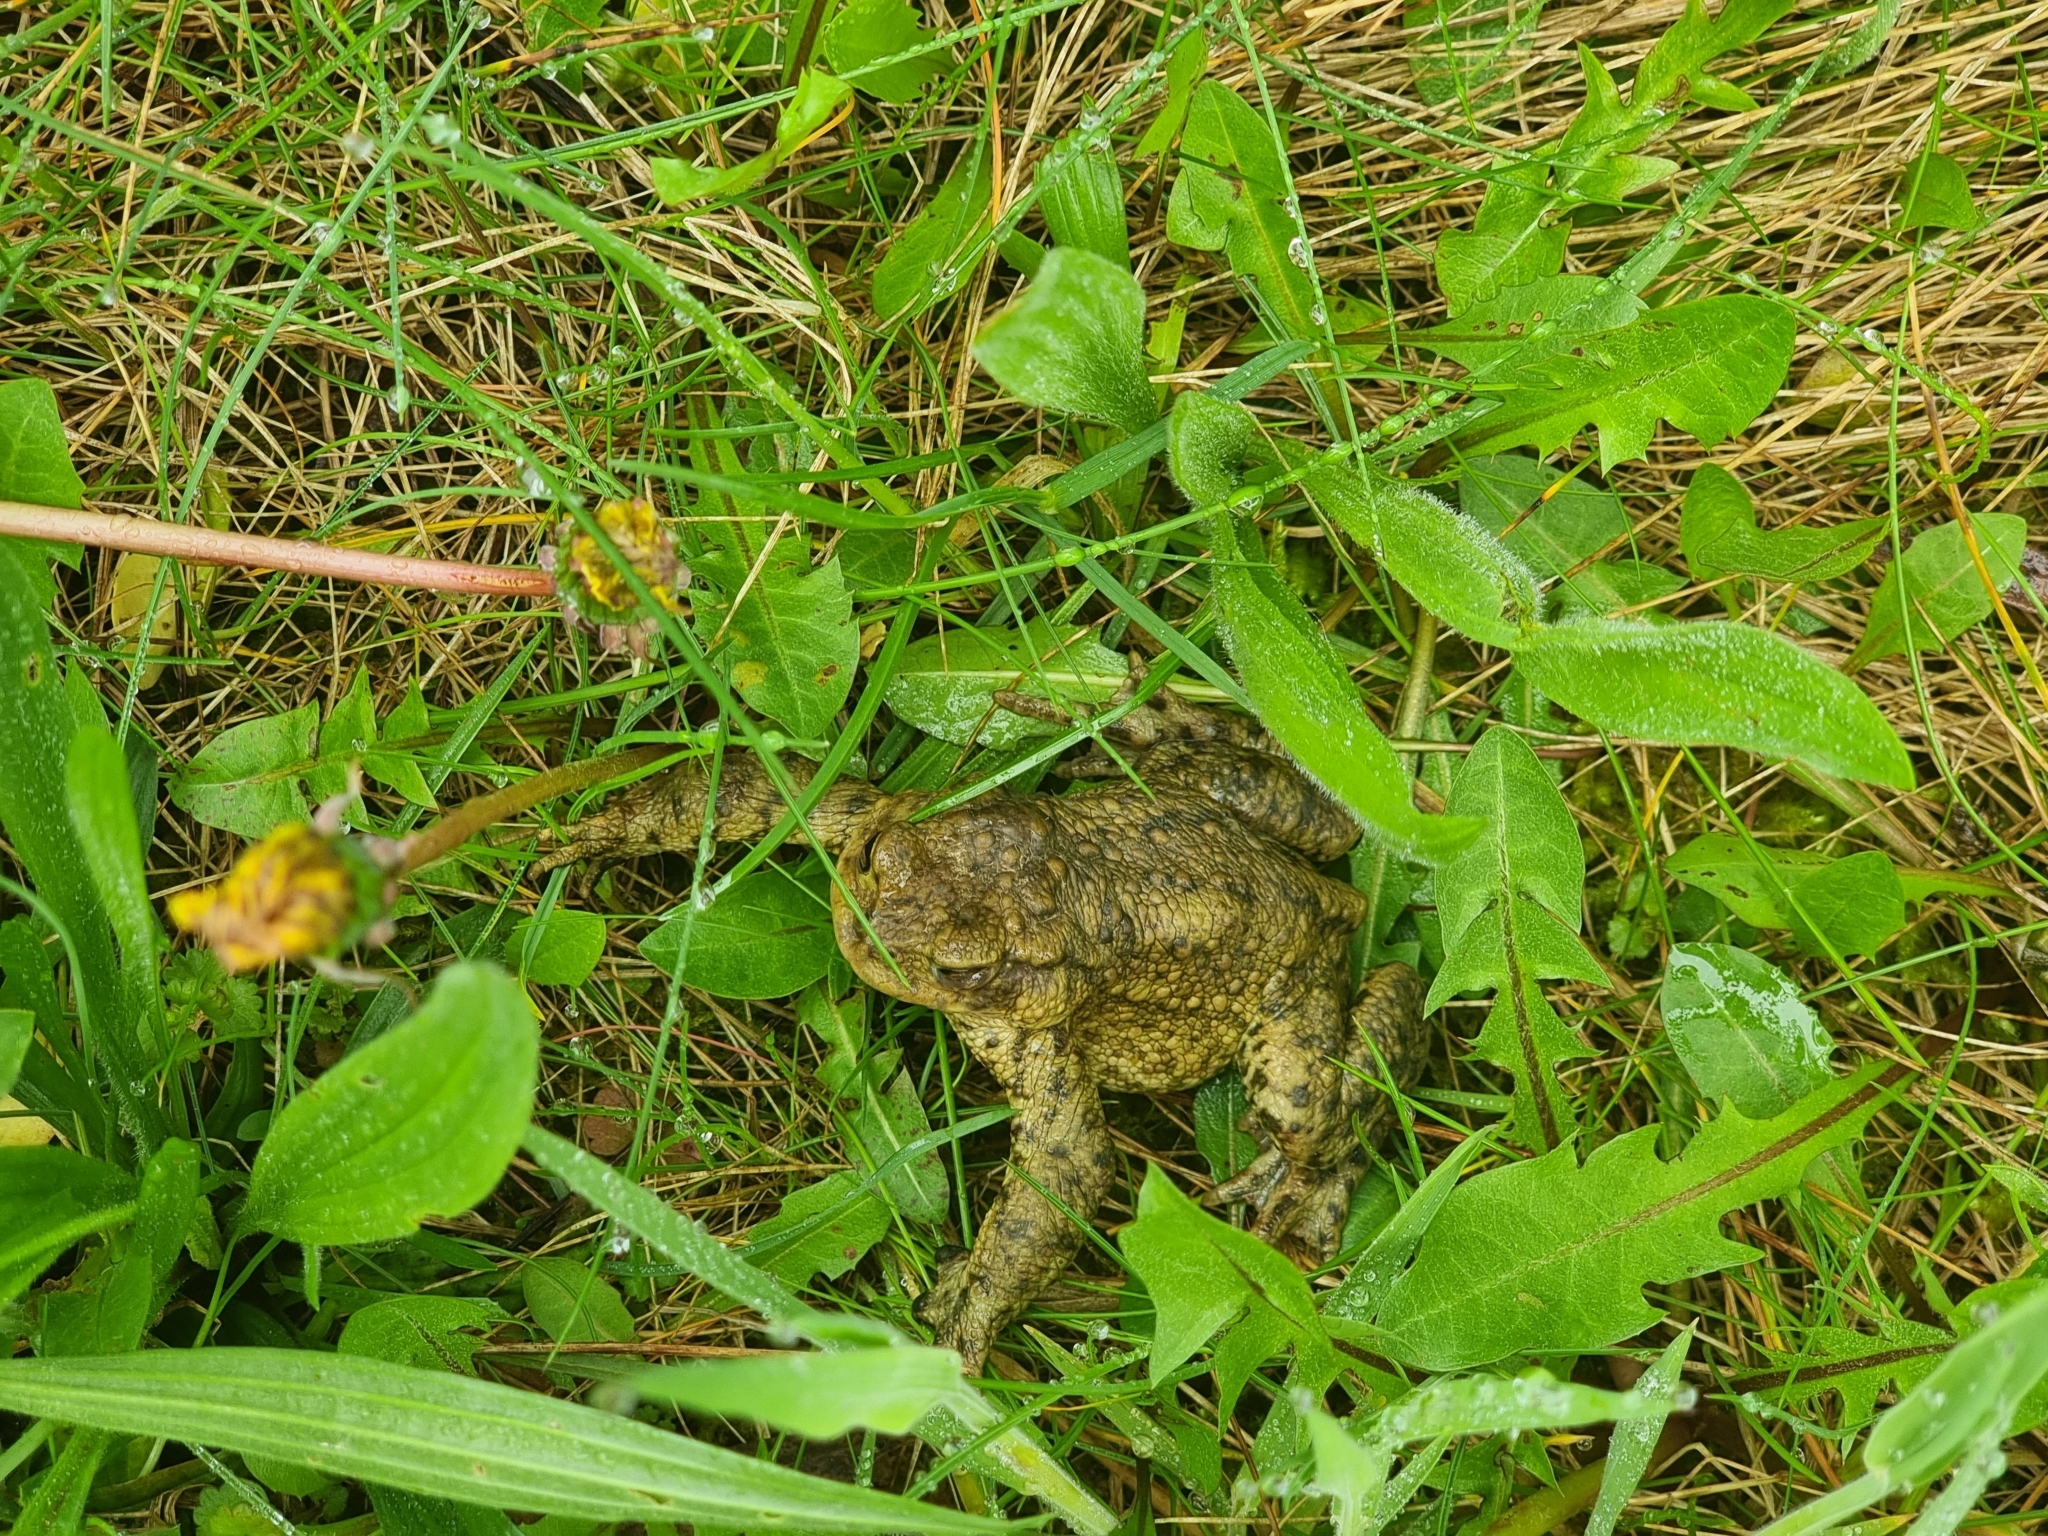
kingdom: Animalia
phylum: Chordata
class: Amphibia
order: Anura
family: Bufonidae
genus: Bufo
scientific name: Bufo bufo
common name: Common toad
